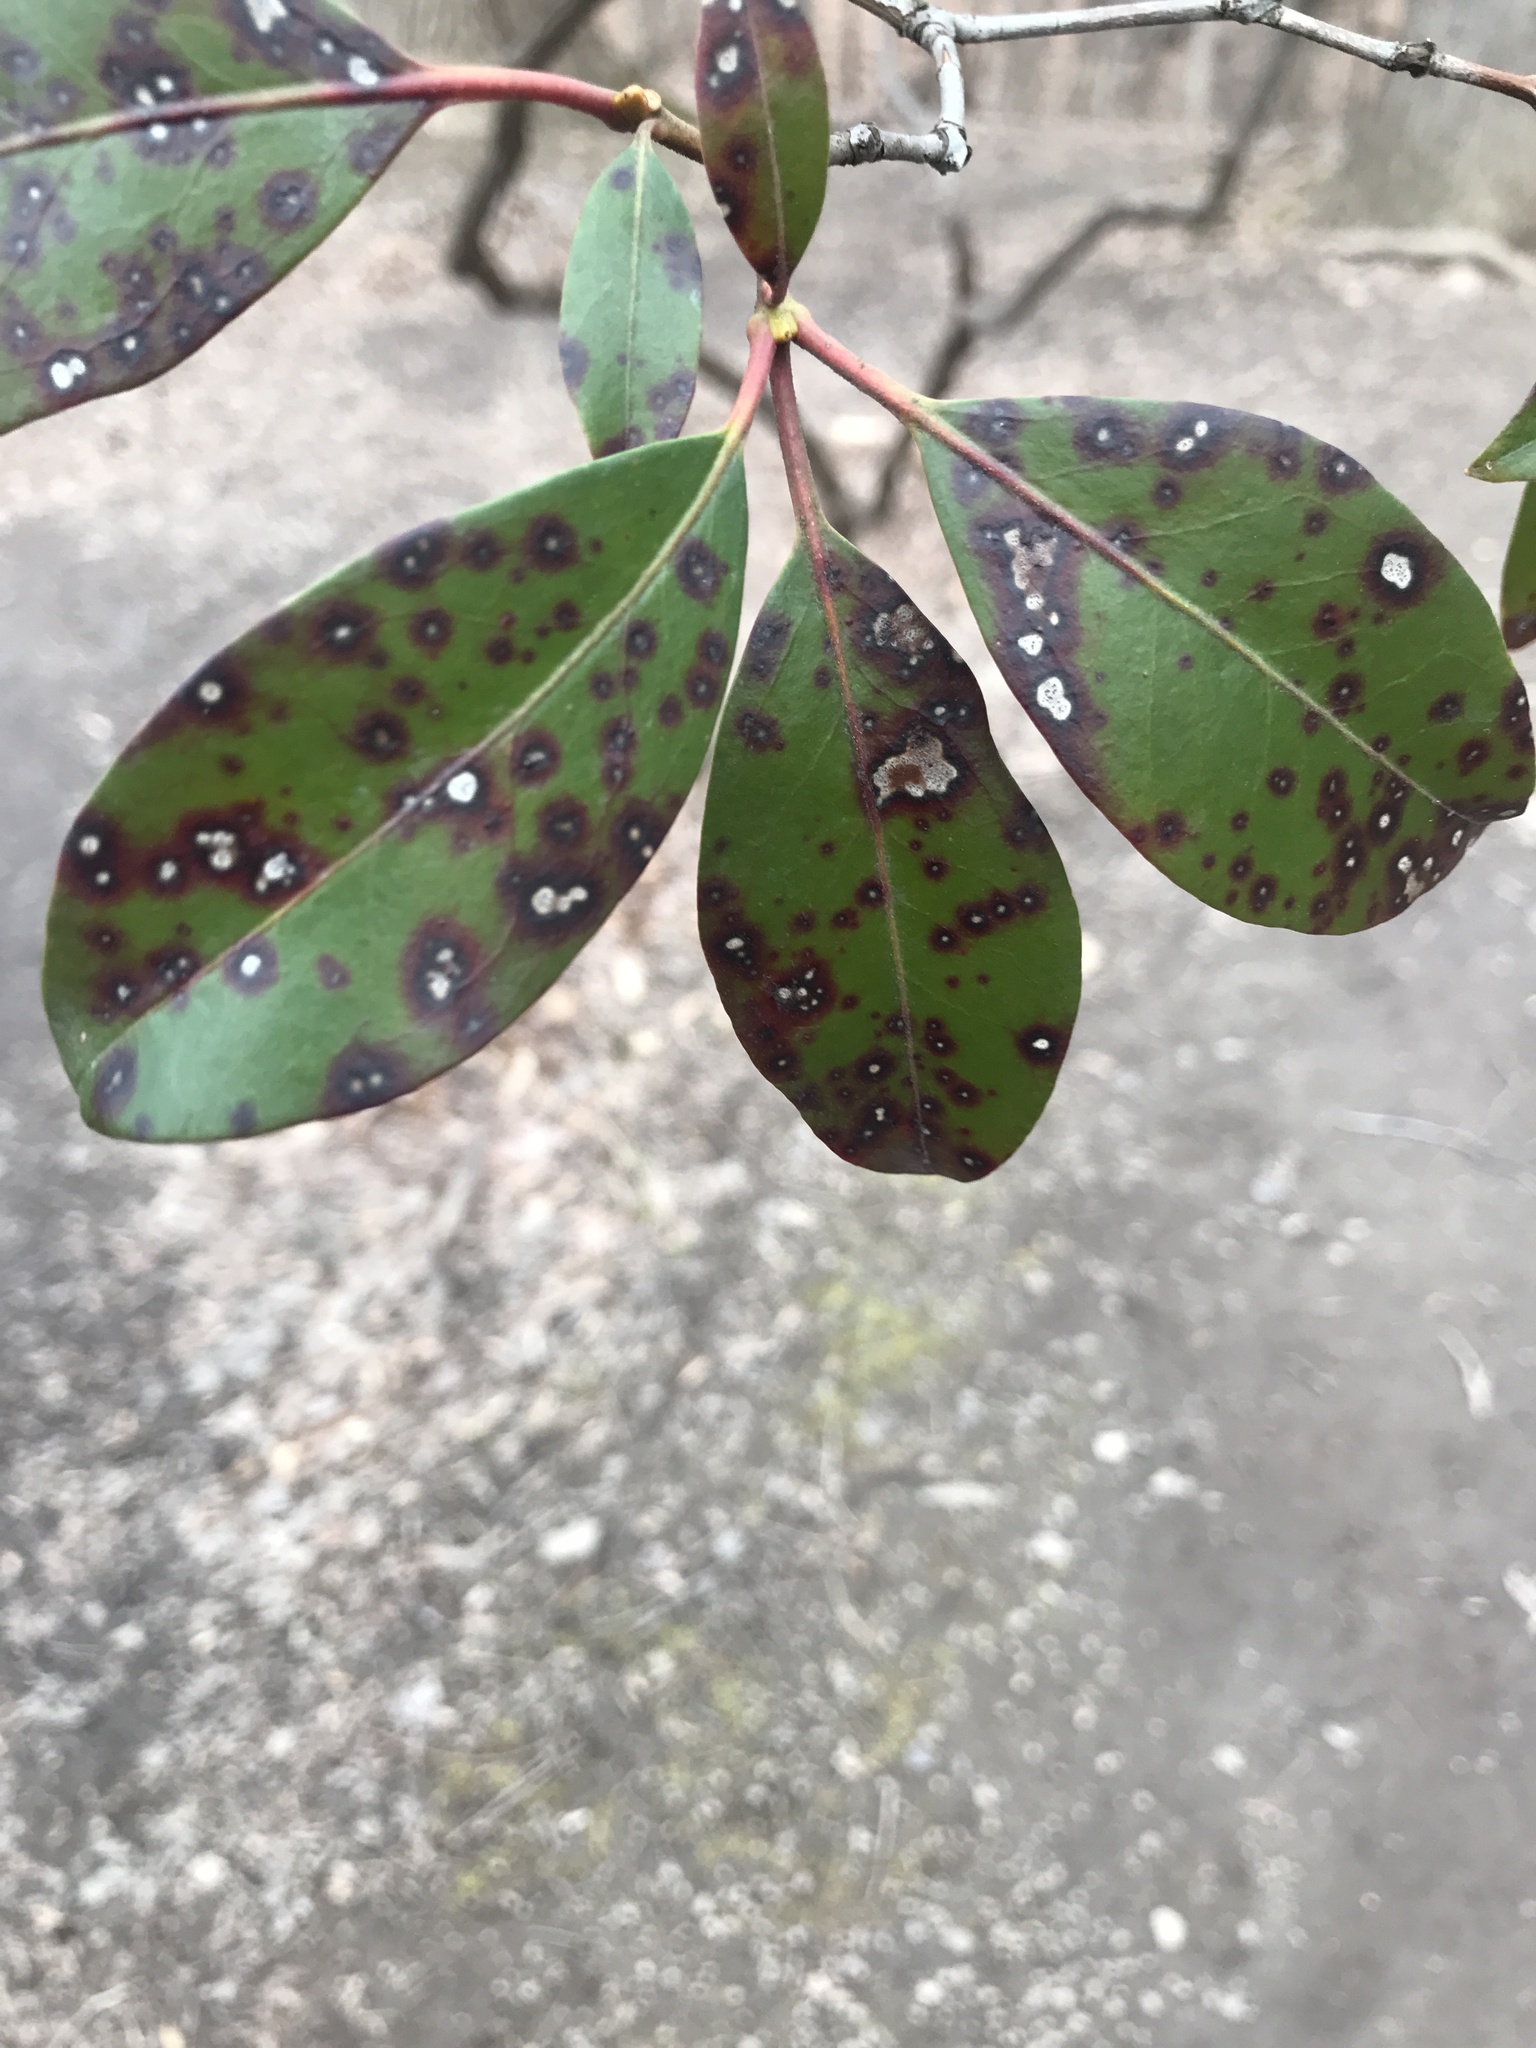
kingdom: Fungi
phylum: Ascomycota
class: Dothideomycetes
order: Mycosphaerellales
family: Mycosphaerellaceae
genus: Mycosphaerella
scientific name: Mycosphaerella colorata
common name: Mountain laurel leaf spot
